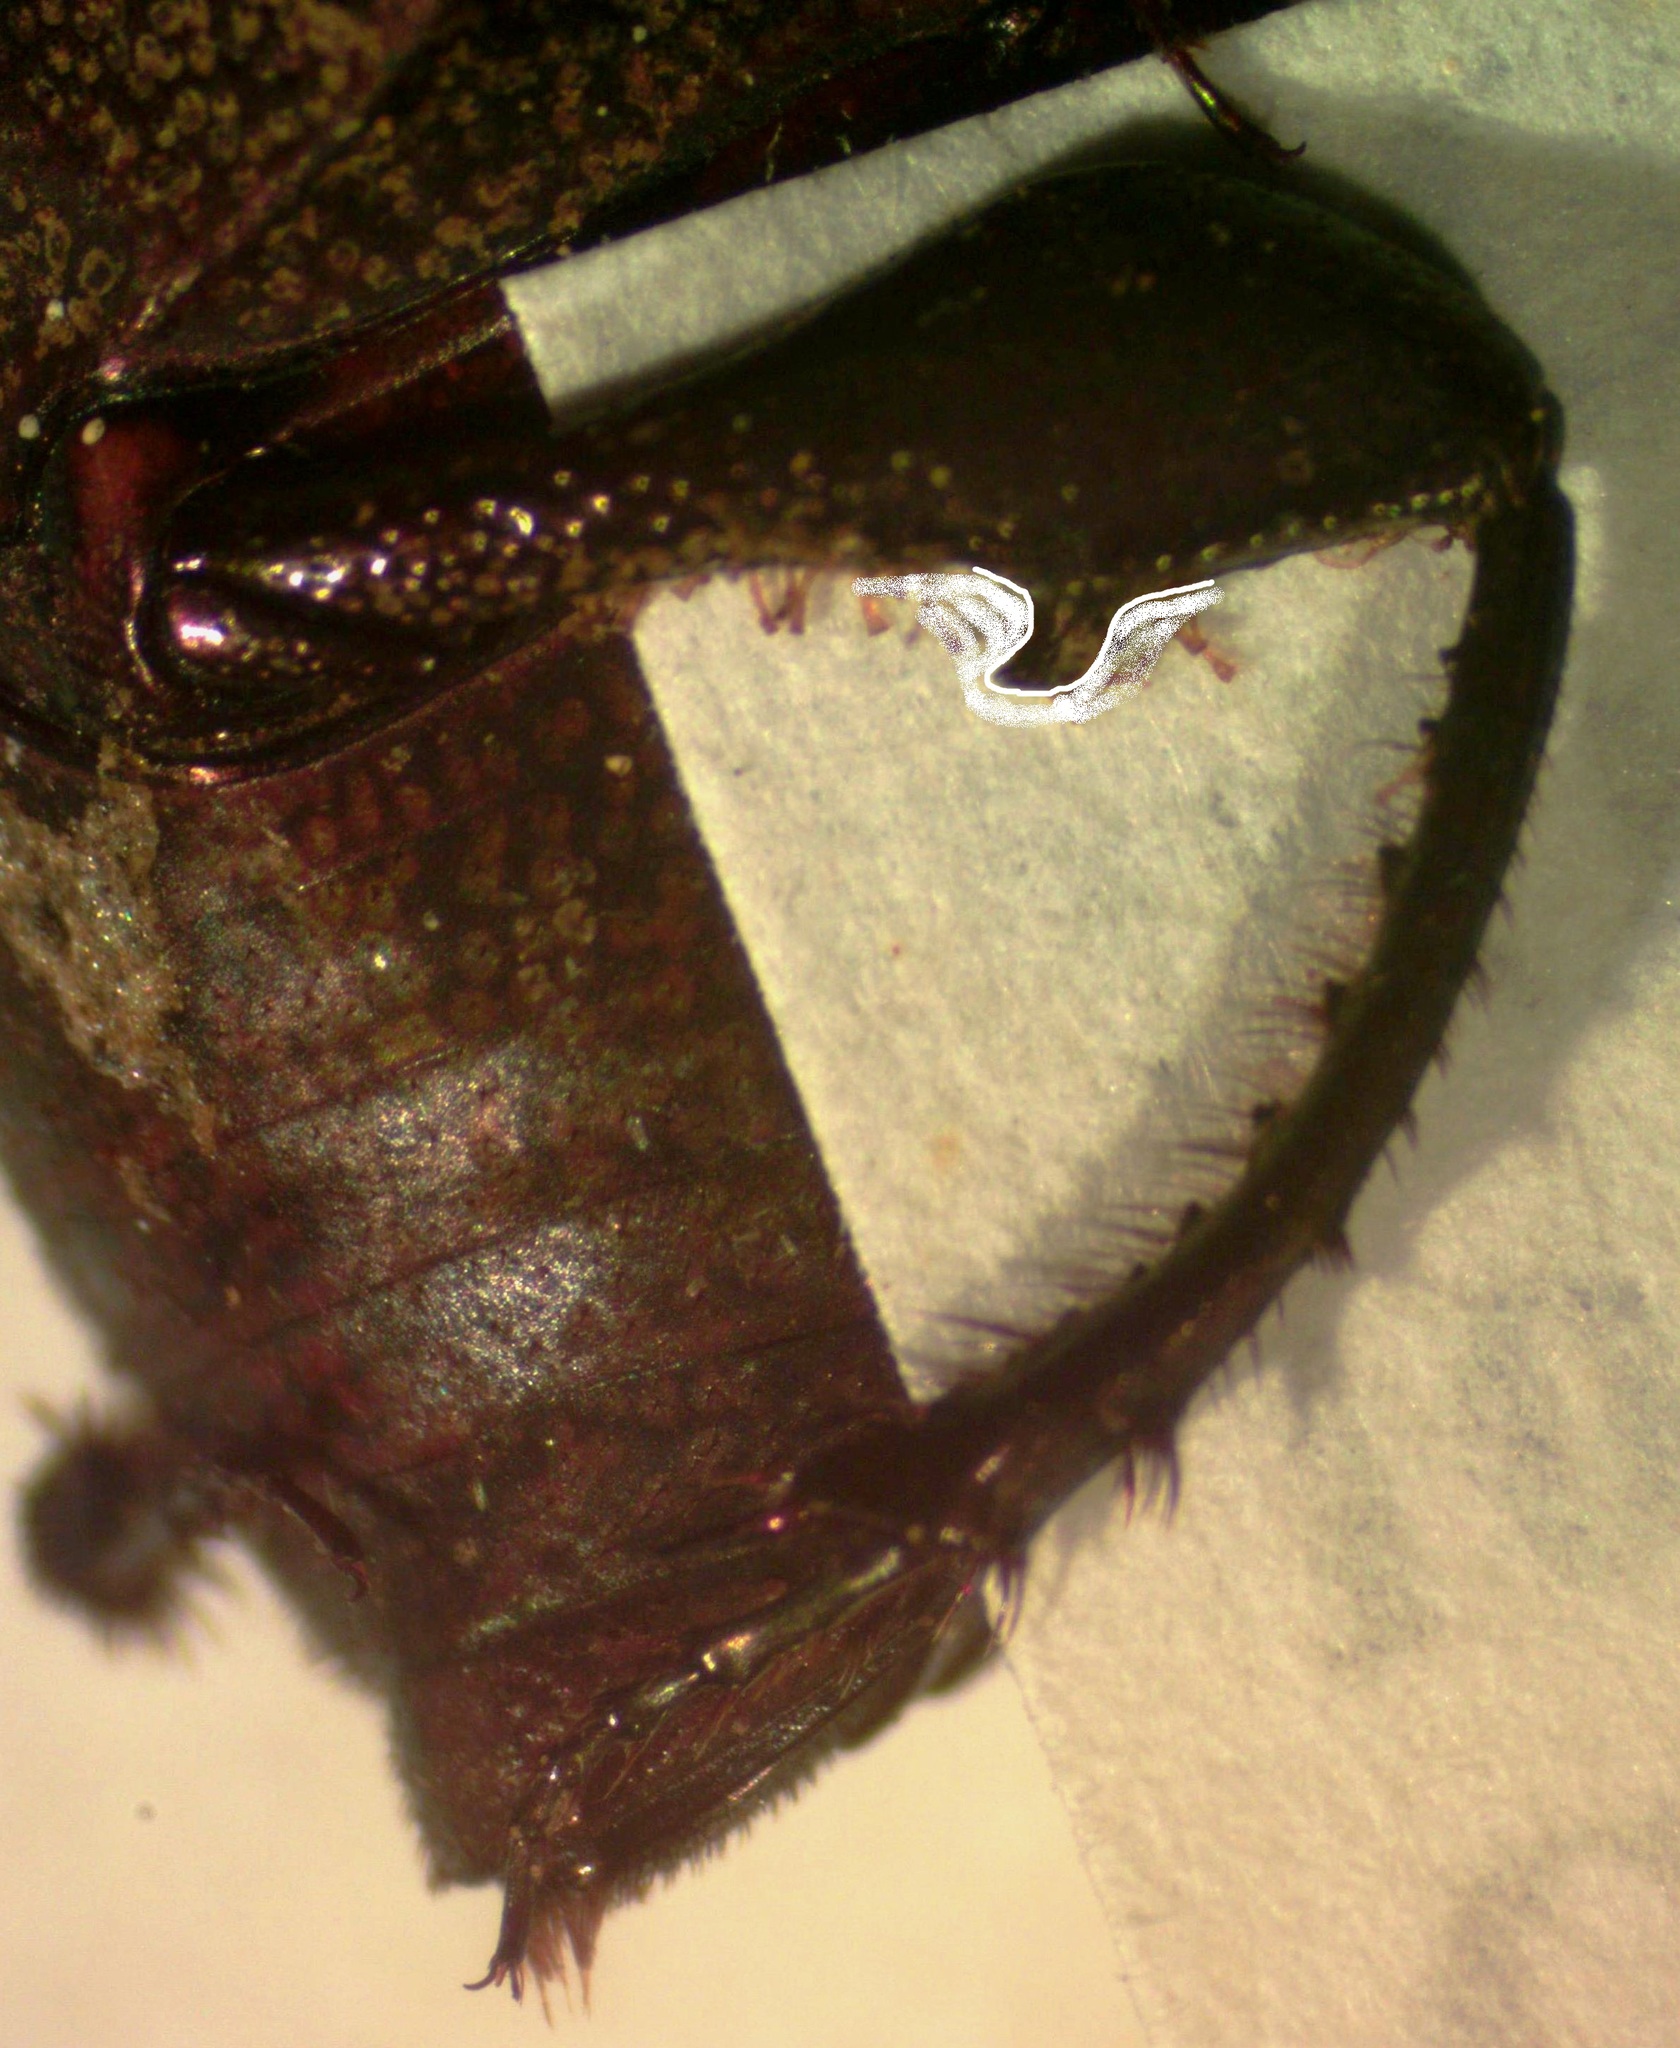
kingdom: Animalia
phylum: Arthropoda
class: Insecta
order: Coleoptera
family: Scarabaeidae
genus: Eurysternus
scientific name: Eurysternus magnus
